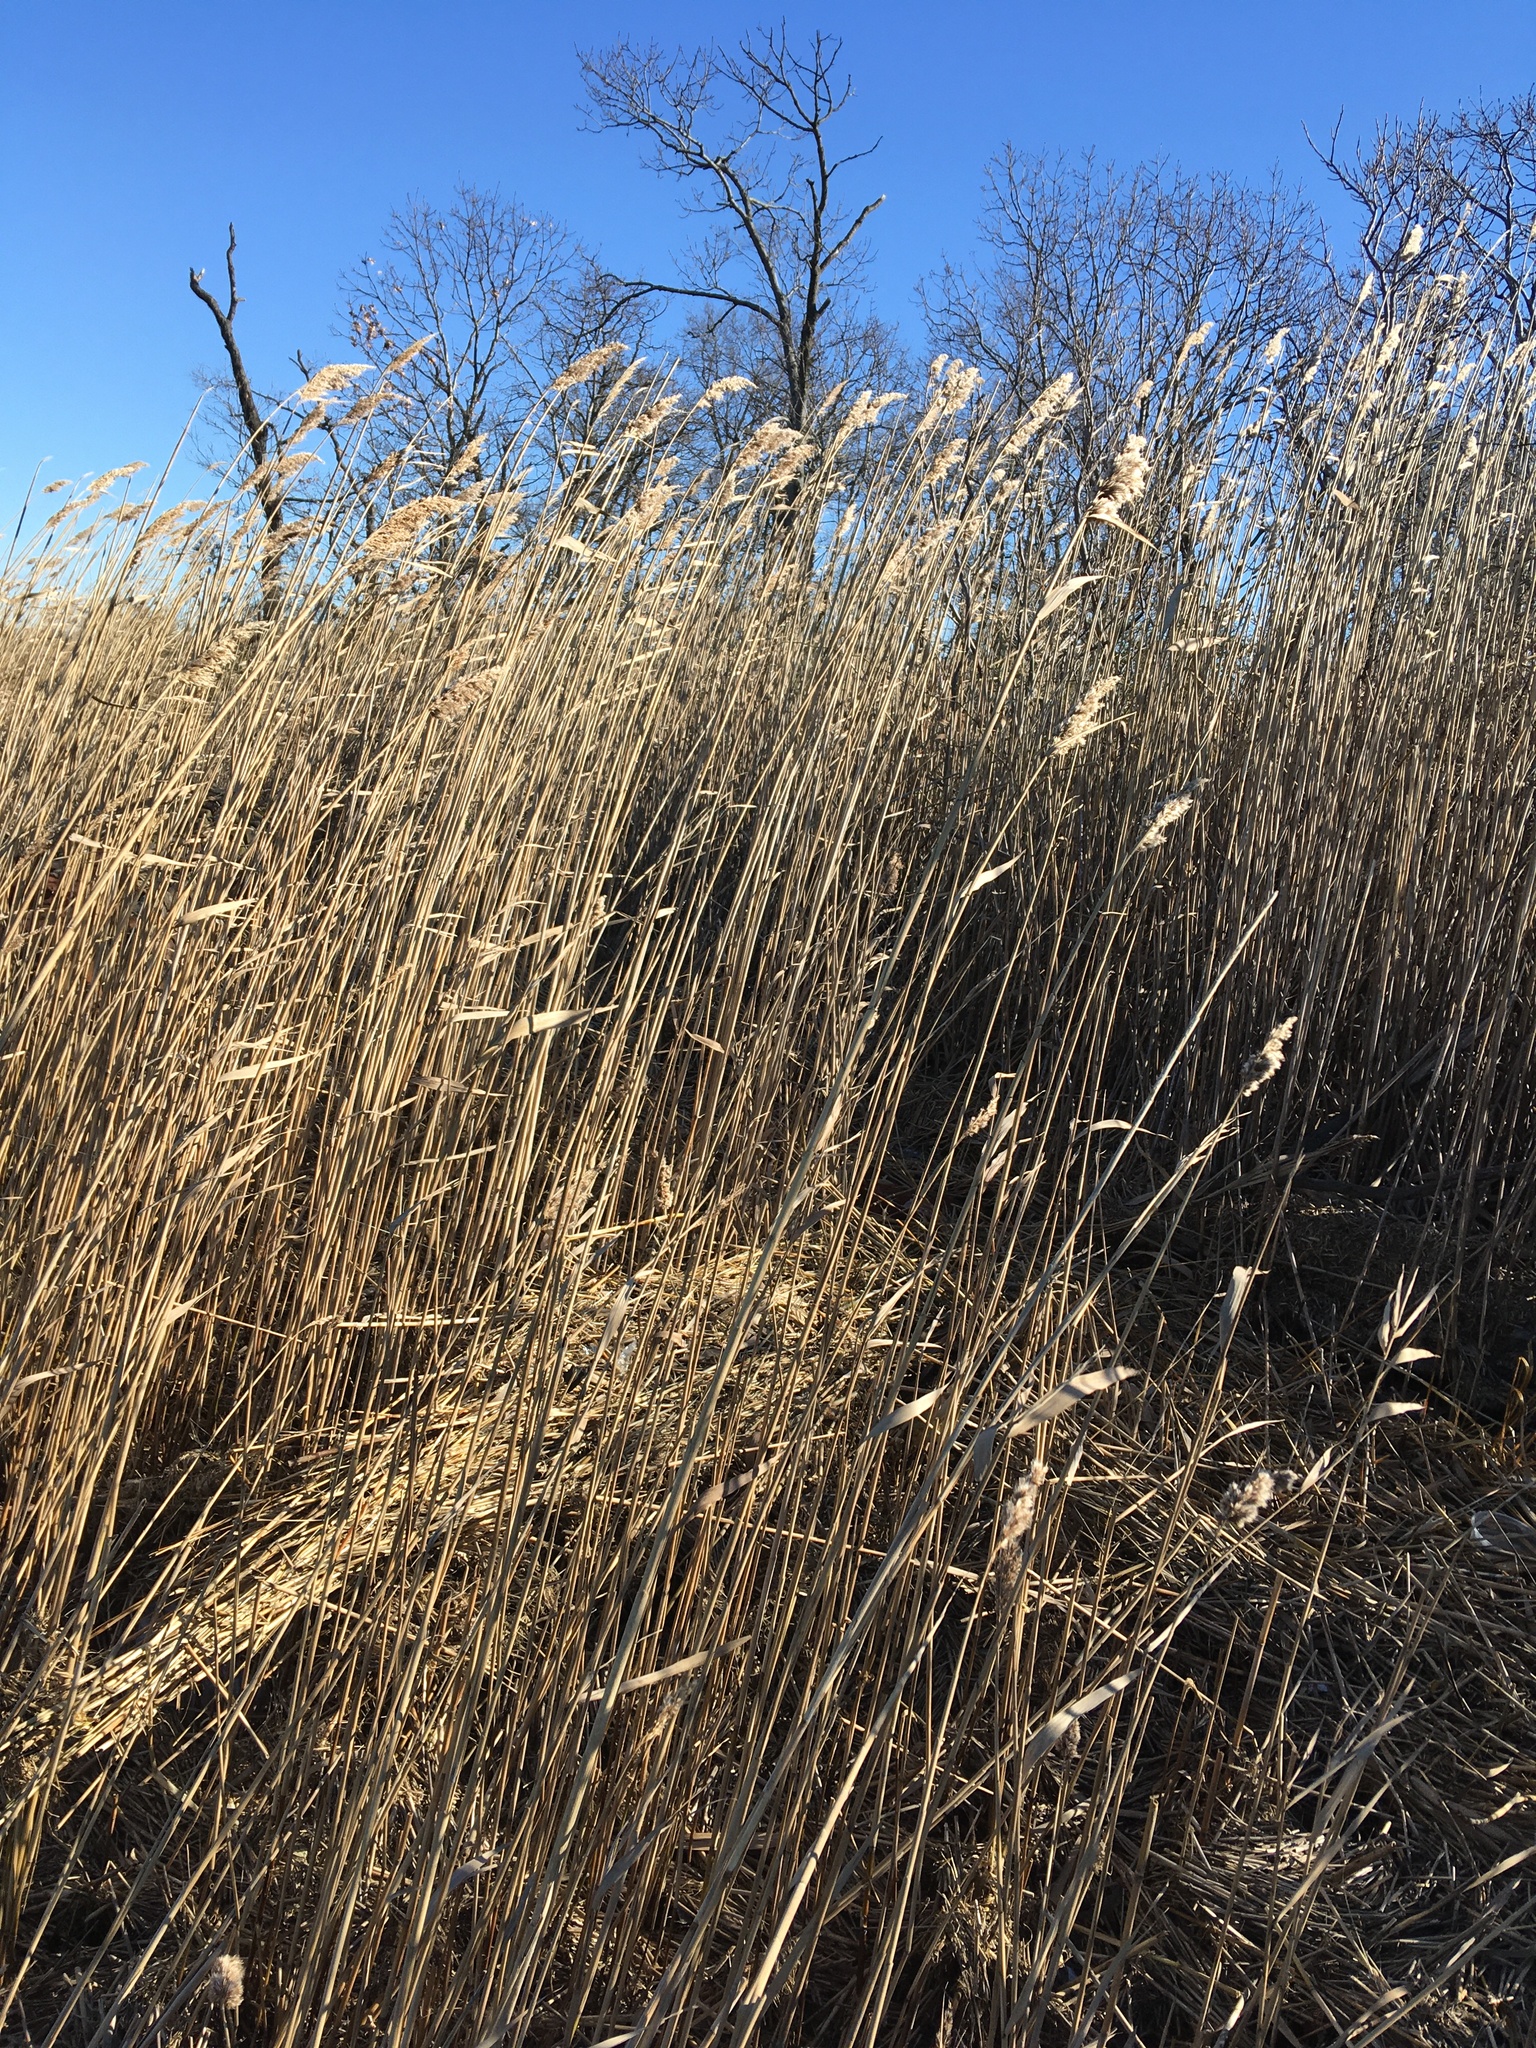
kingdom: Plantae
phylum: Tracheophyta
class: Liliopsida
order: Poales
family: Poaceae
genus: Phragmites
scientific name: Phragmites australis
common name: Common reed
